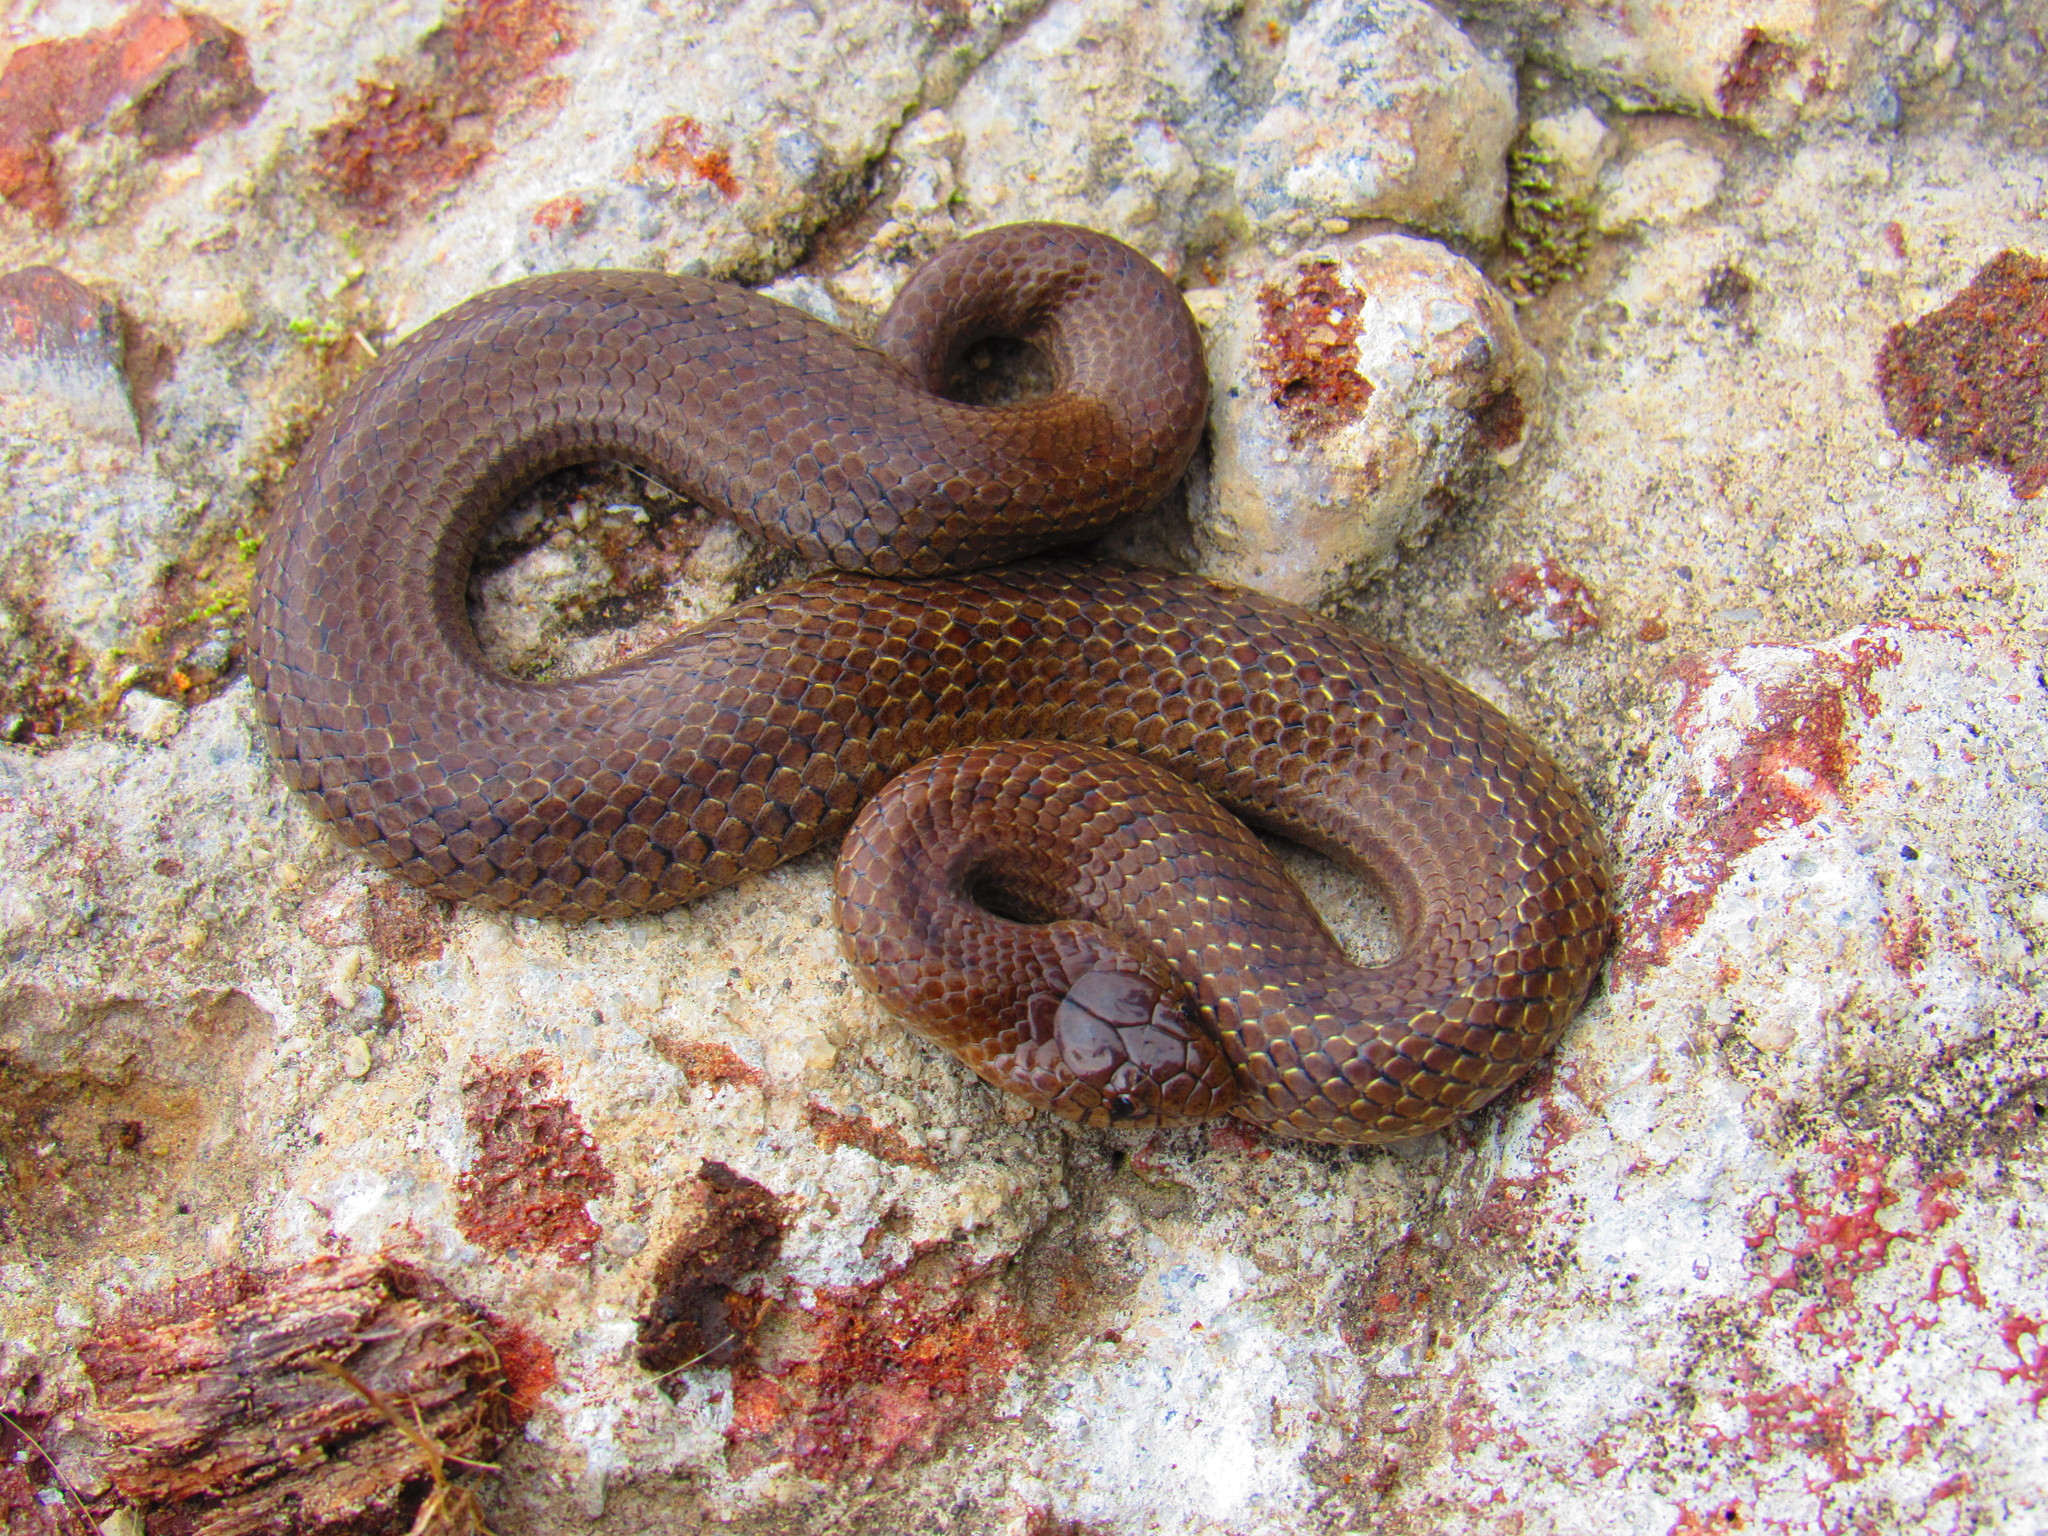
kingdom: Animalia
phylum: Chordata
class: Squamata
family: Colubridae
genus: Conopsis
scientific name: Conopsis biserialis
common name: Two-lined mexican earth snake
